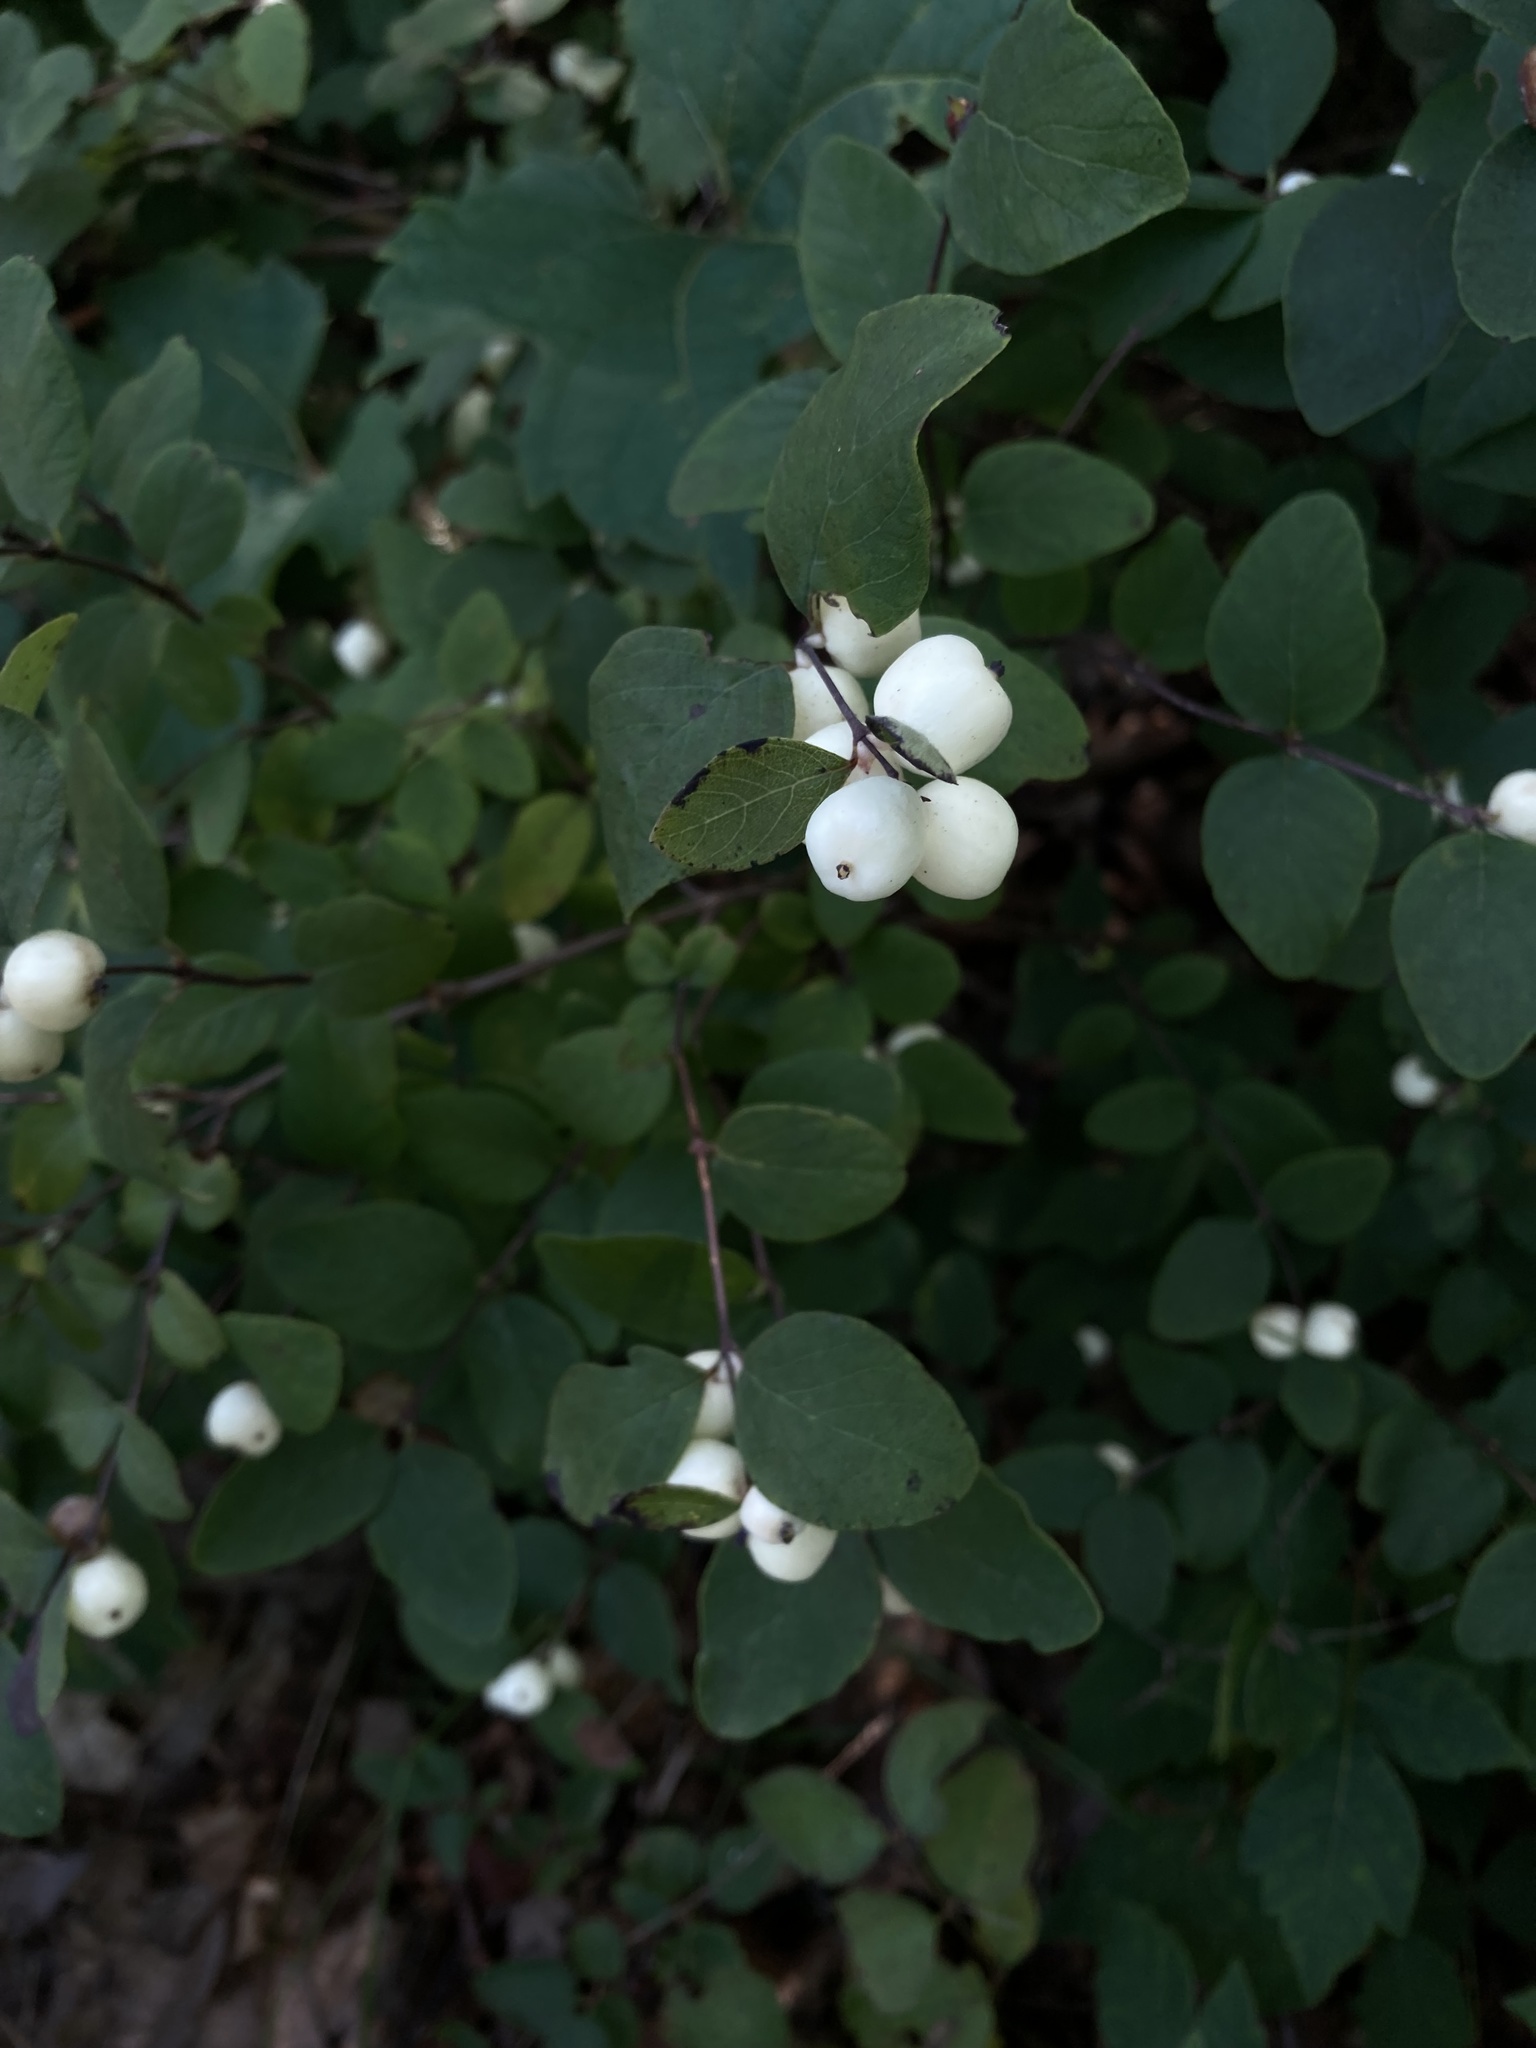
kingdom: Plantae
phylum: Tracheophyta
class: Magnoliopsida
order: Dipsacales
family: Caprifoliaceae
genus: Symphoricarpos
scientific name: Symphoricarpos albus
